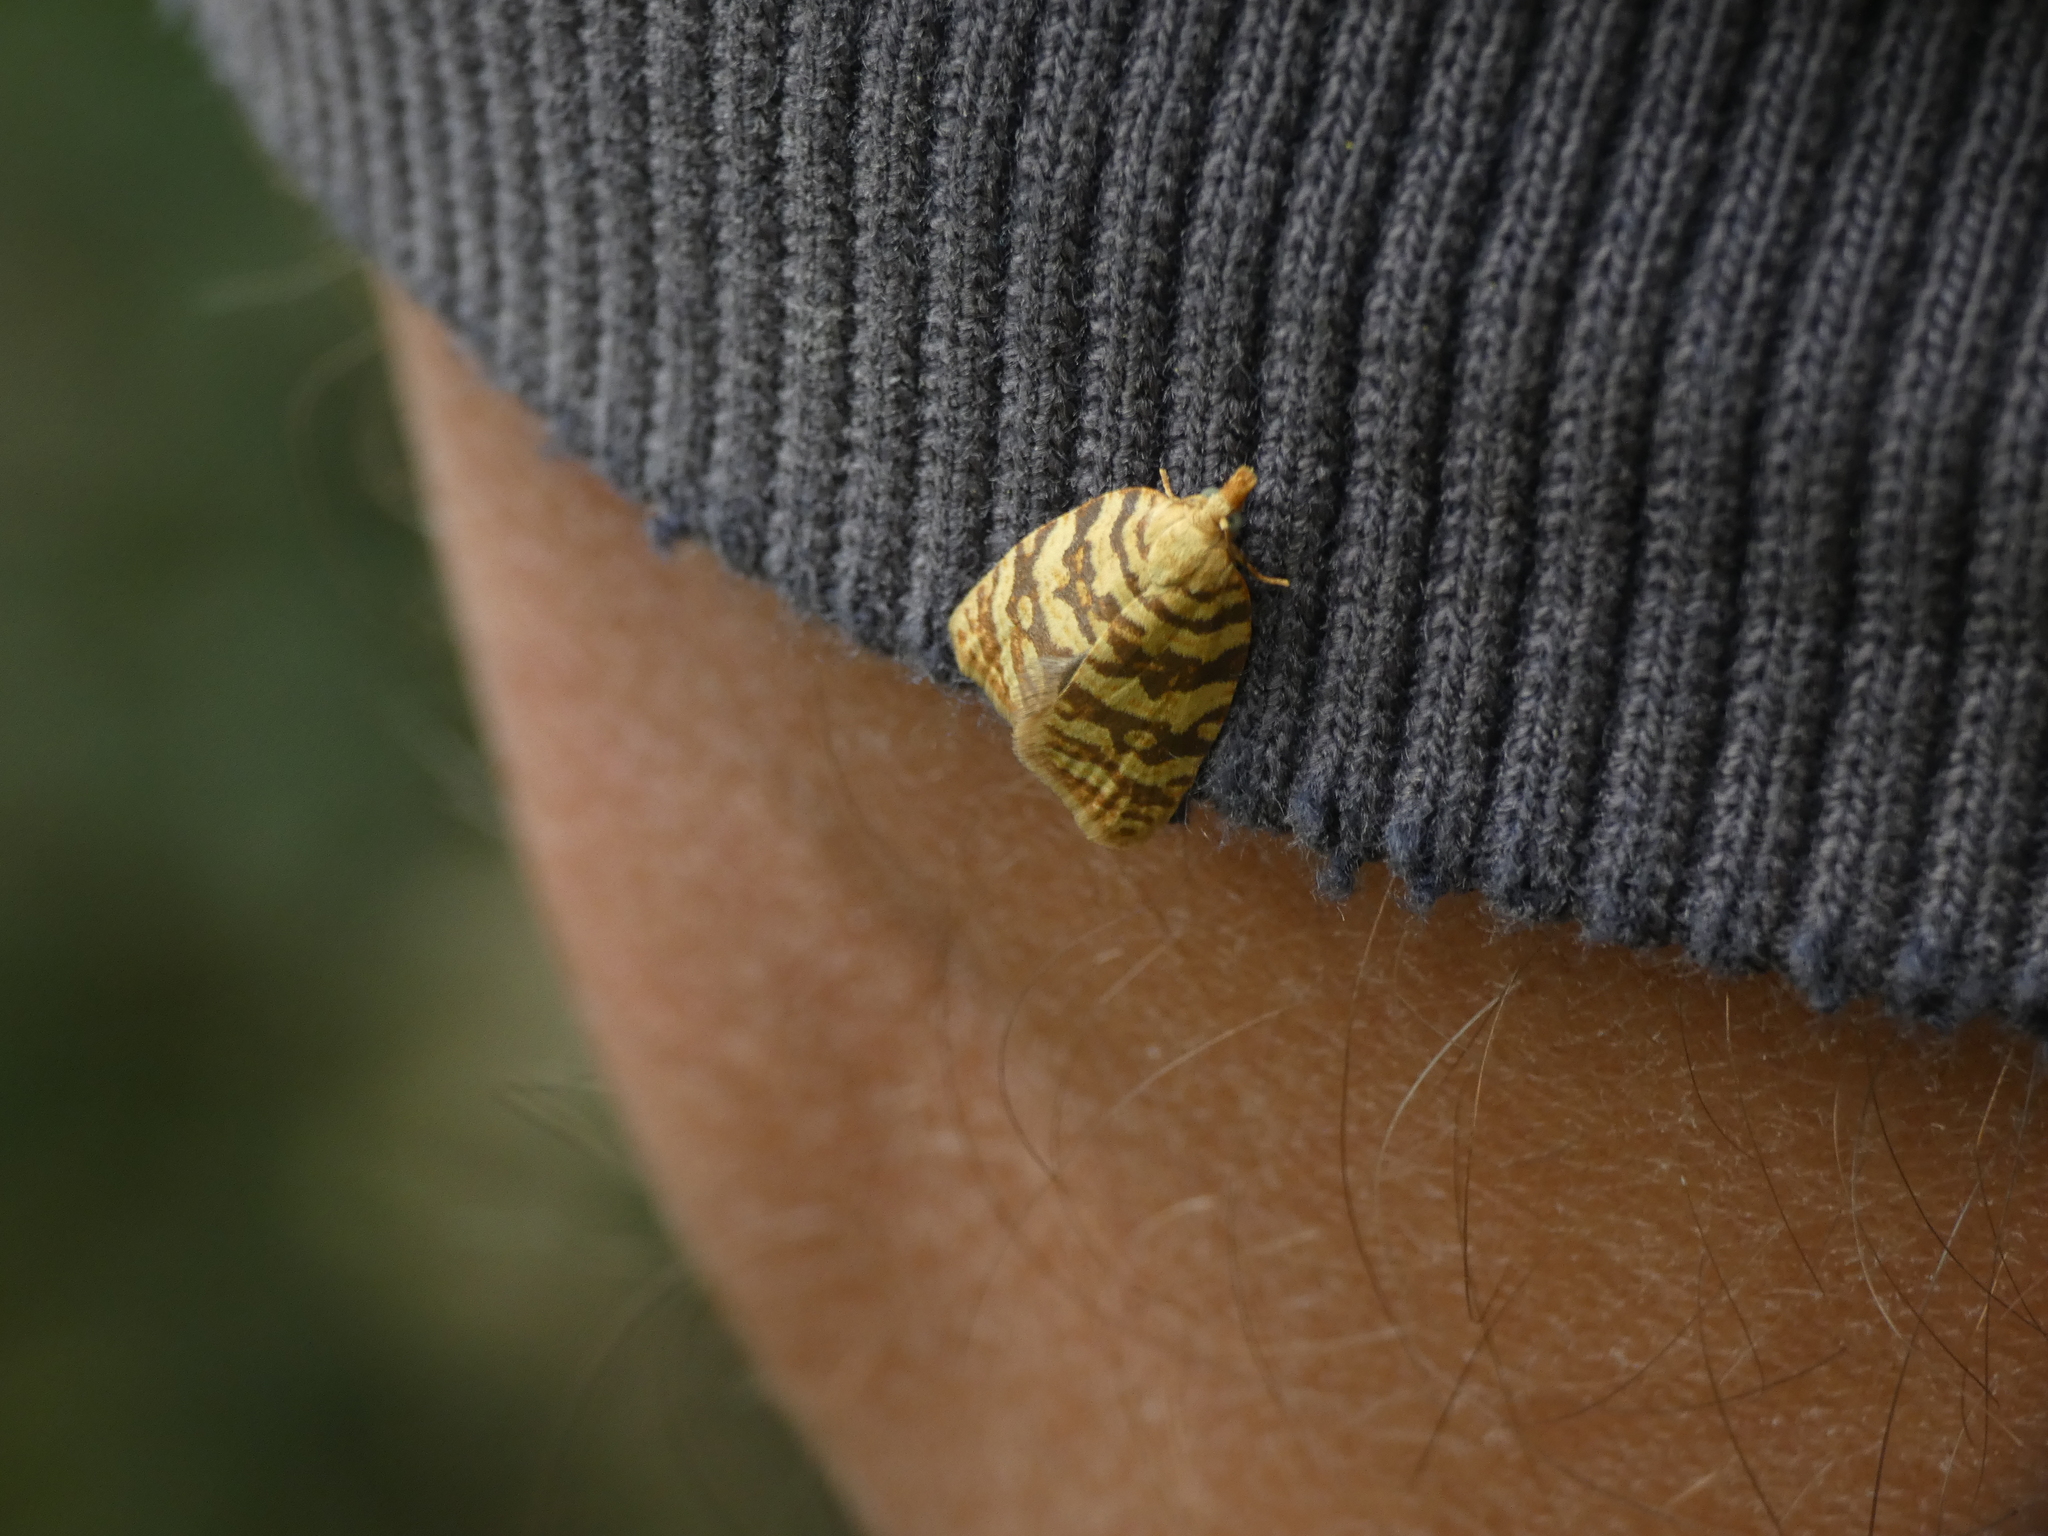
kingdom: Animalia
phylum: Arthropoda
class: Insecta
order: Lepidoptera
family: Tortricidae
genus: Abrepagoge
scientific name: Abrepagoge treitschkeana
